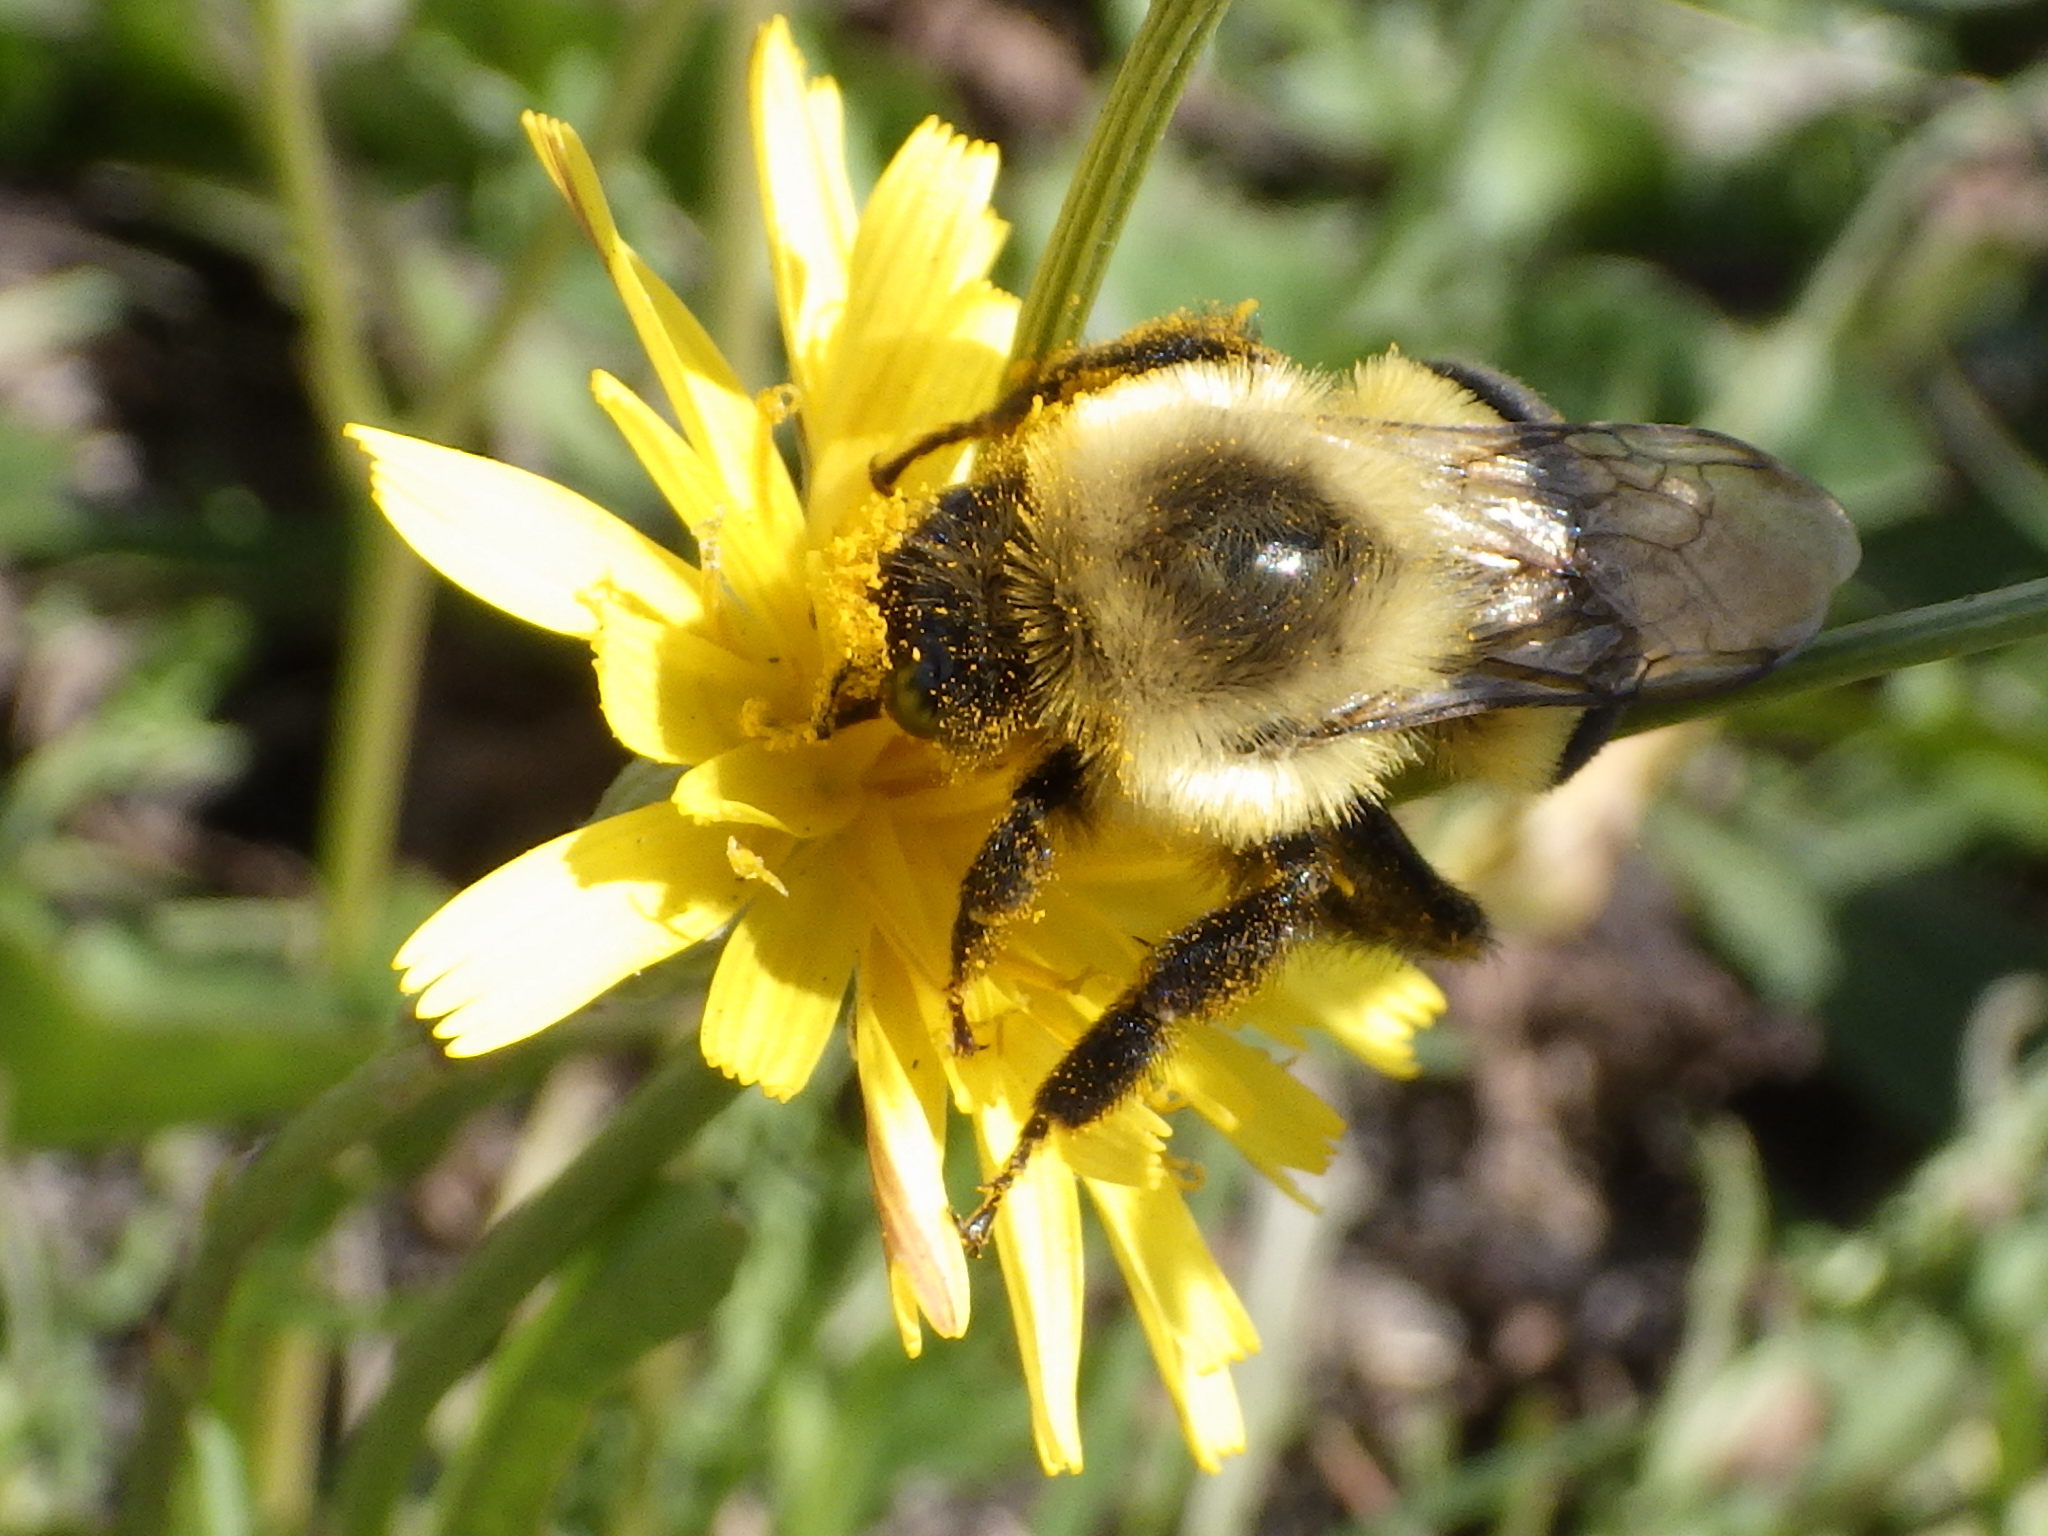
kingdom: Animalia
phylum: Arthropoda
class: Insecta
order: Hymenoptera
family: Apidae
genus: Bombus
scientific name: Bombus impatiens
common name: Common eastern bumble bee
